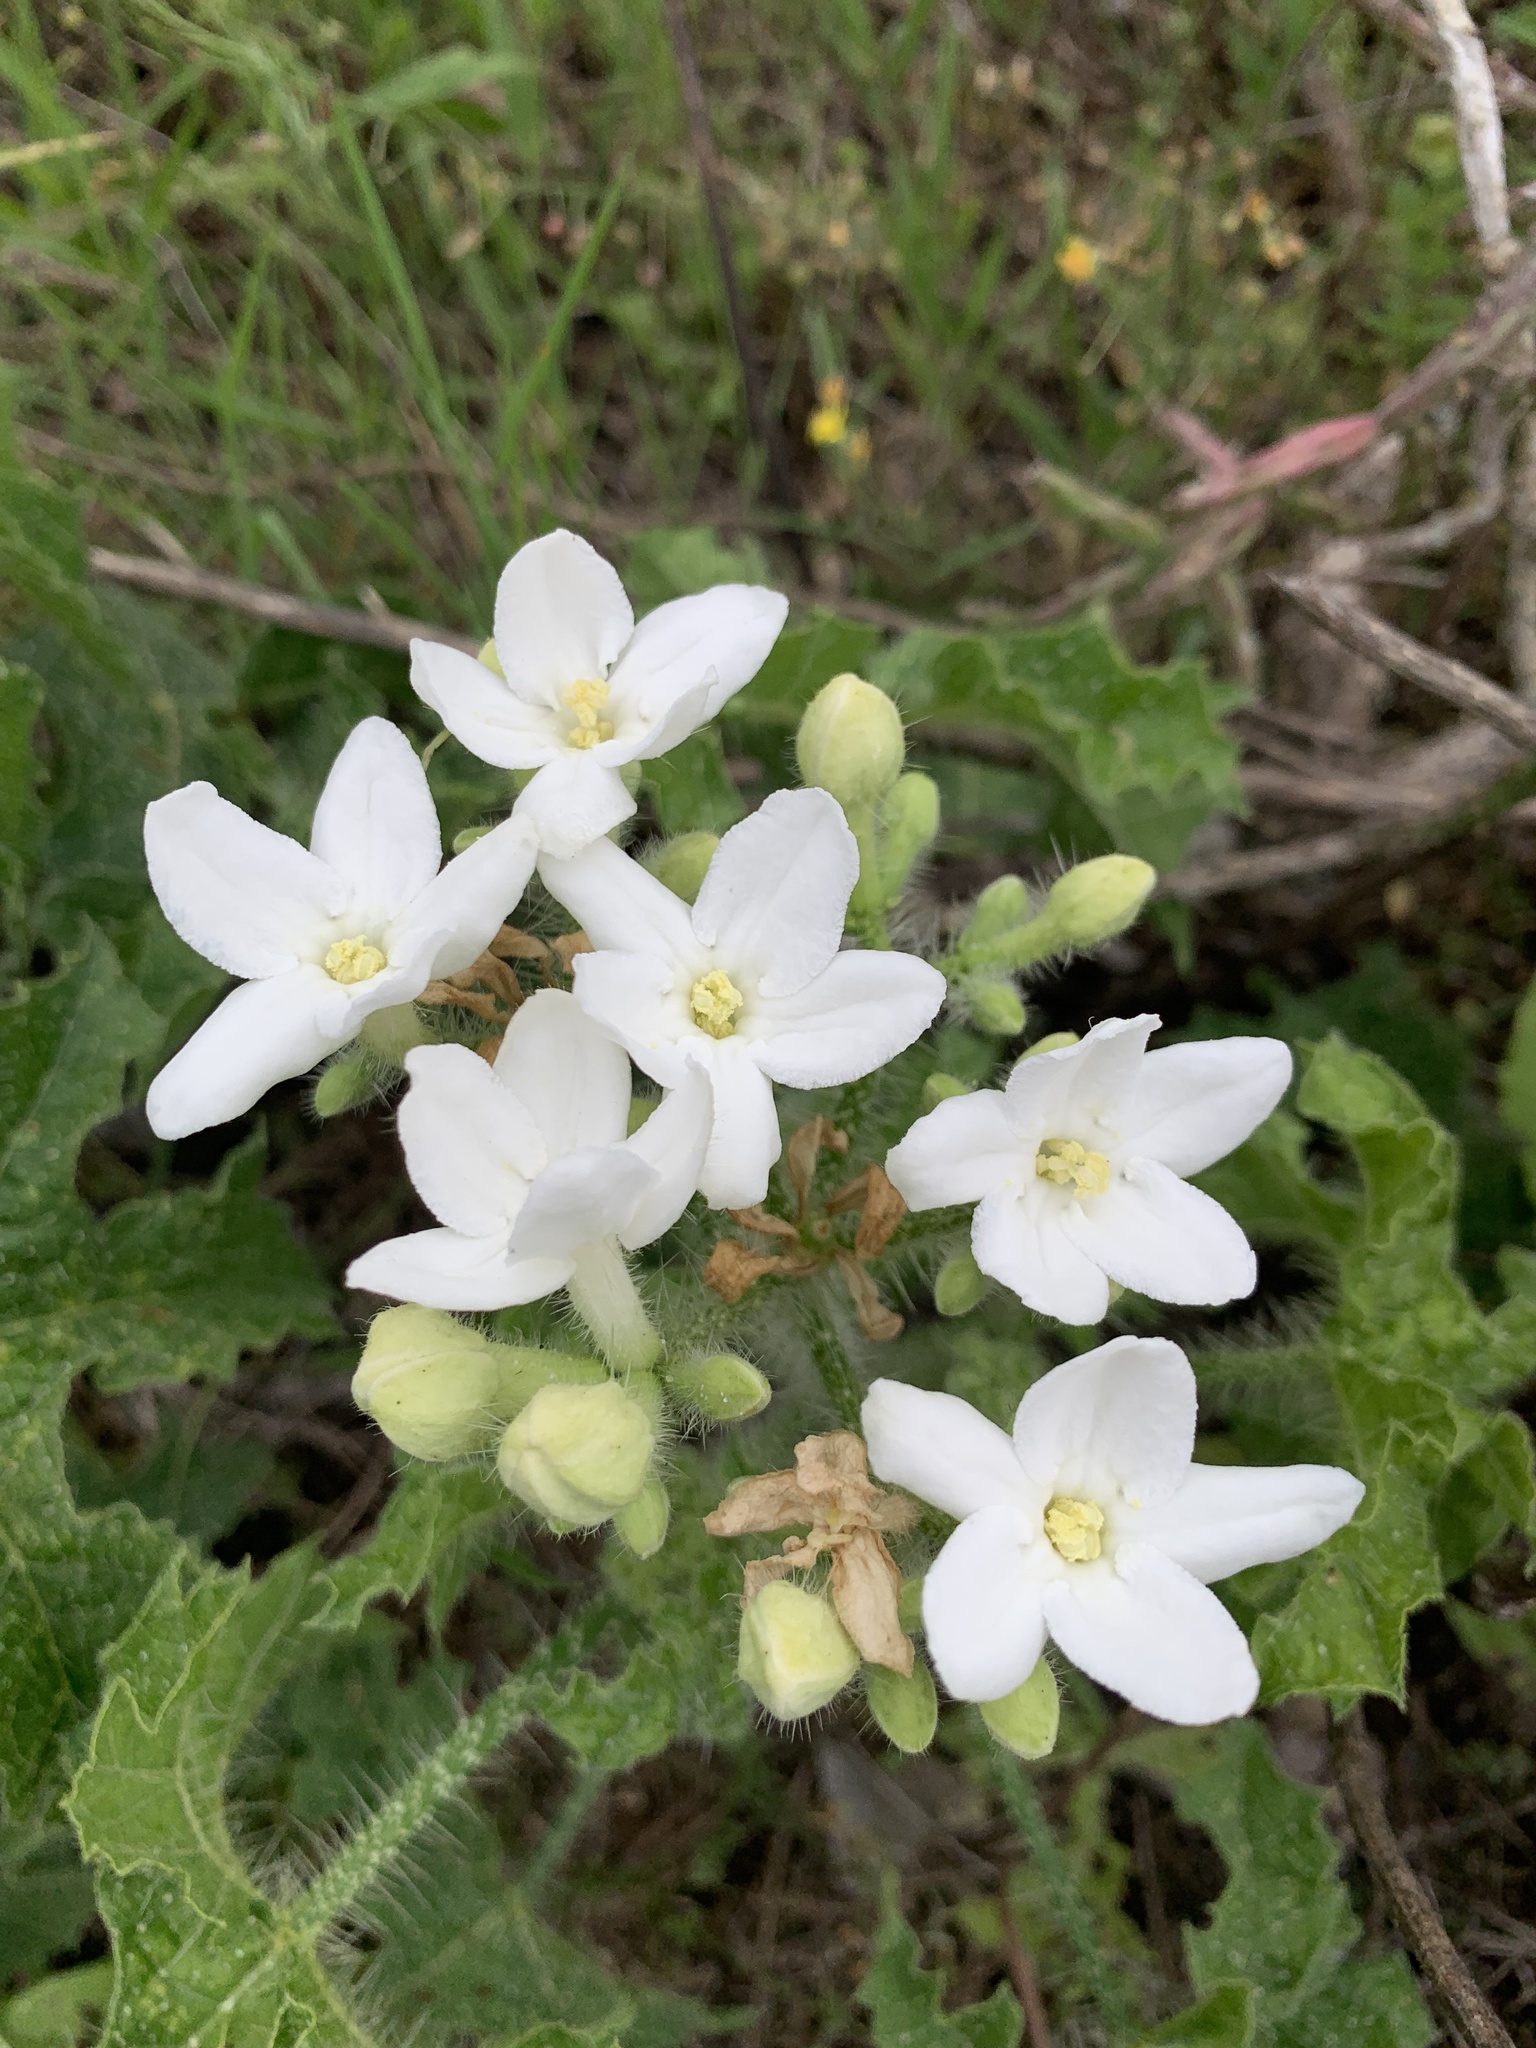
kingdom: Plantae
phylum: Tracheophyta
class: Magnoliopsida
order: Malpighiales
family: Euphorbiaceae
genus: Cnidoscolus
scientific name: Cnidoscolus texanus
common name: Texas bull-nettle
